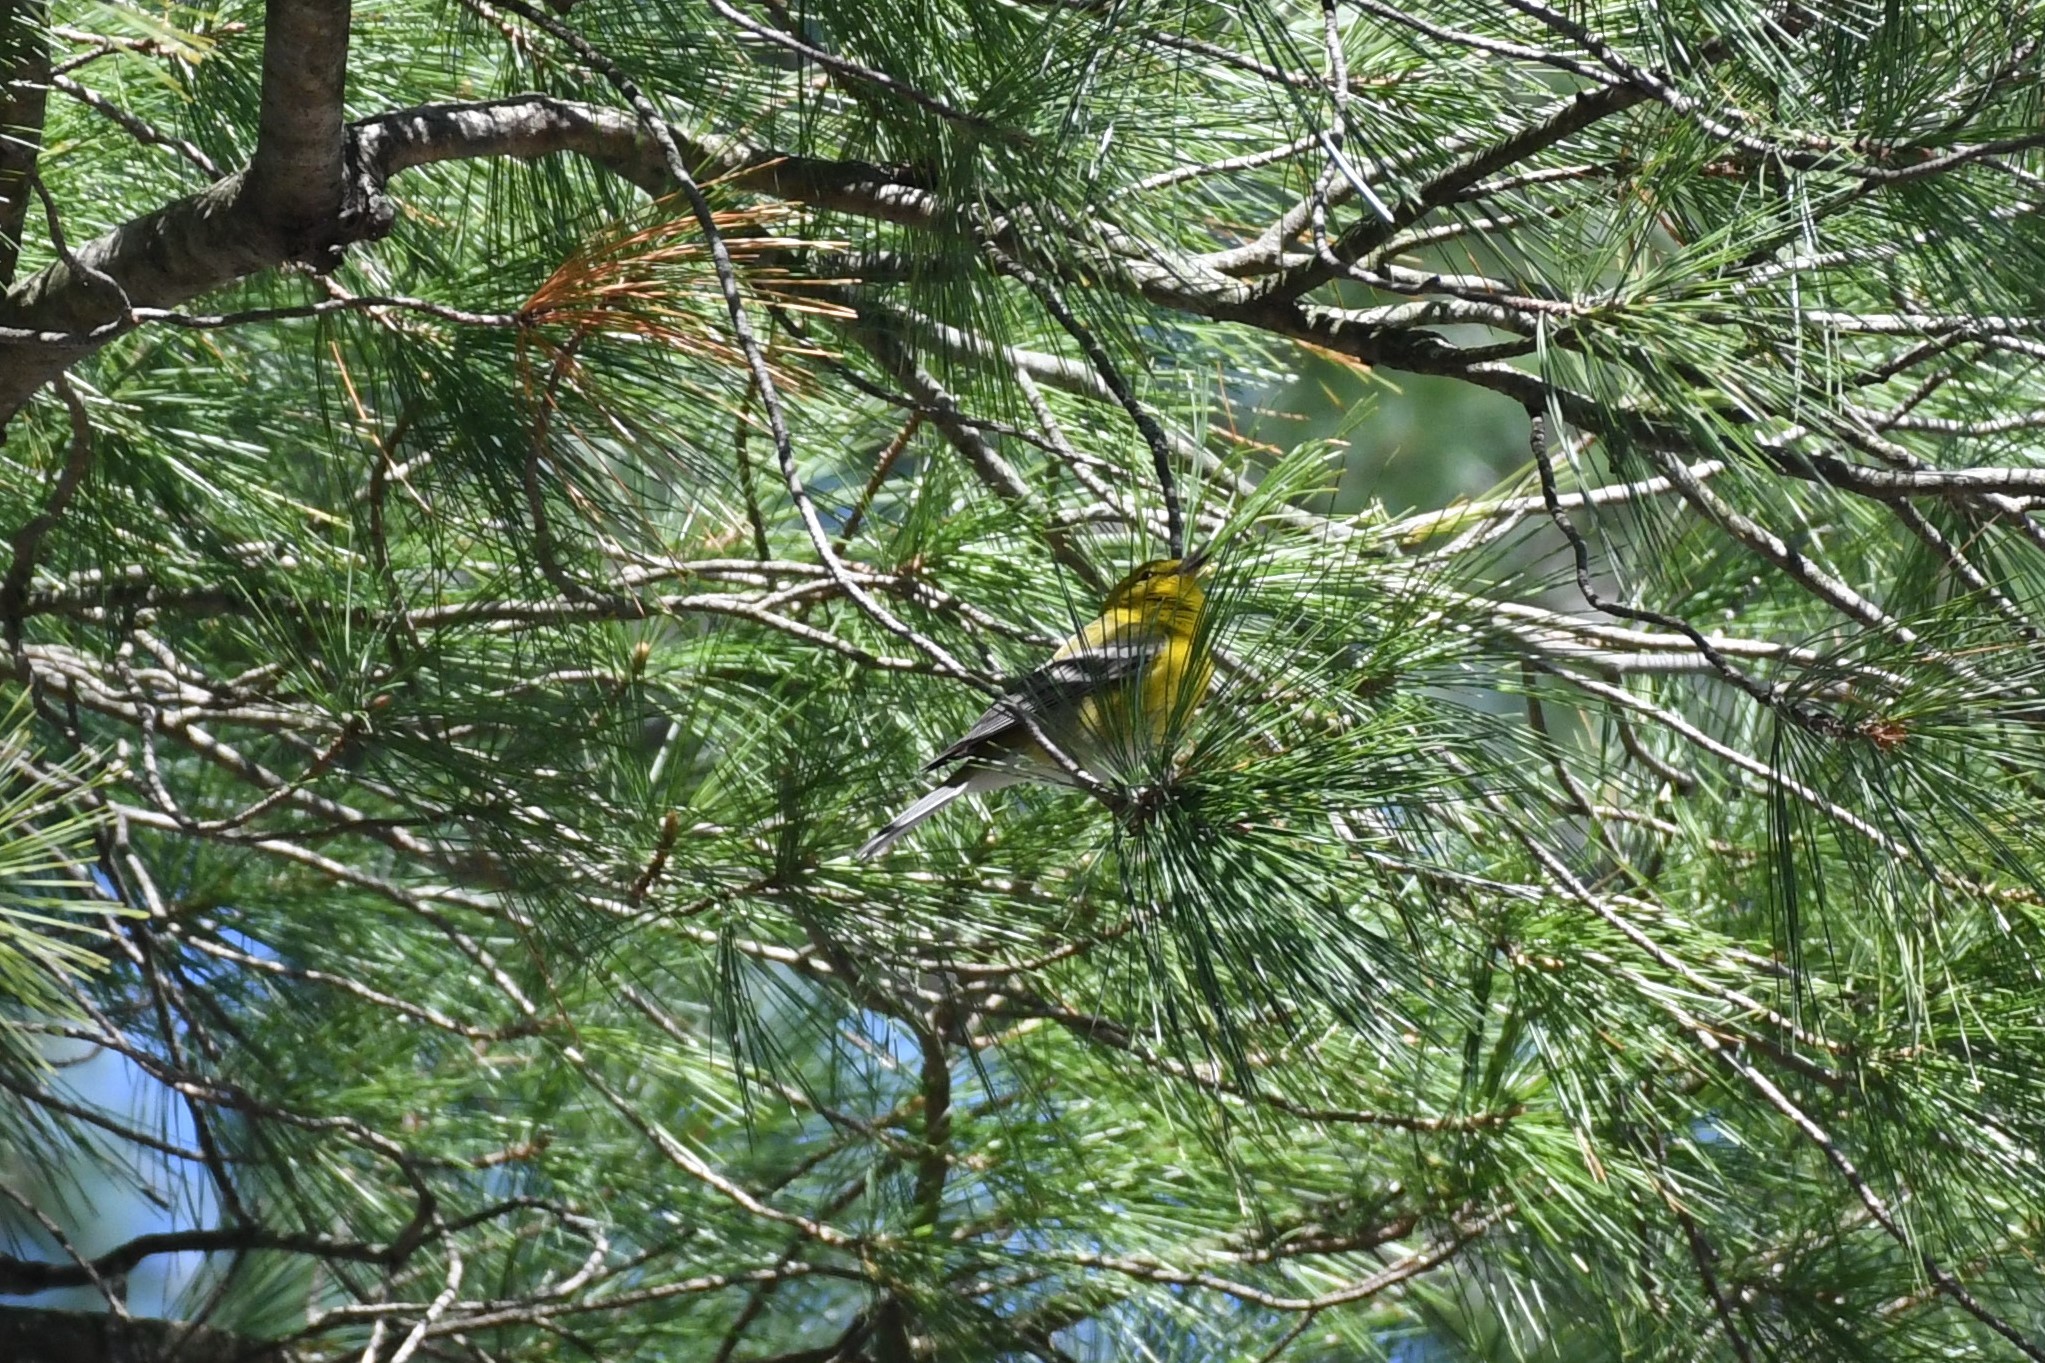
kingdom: Animalia
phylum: Chordata
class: Aves
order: Passeriformes
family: Parulidae
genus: Setophaga
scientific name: Setophaga pinus
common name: Pine warbler
